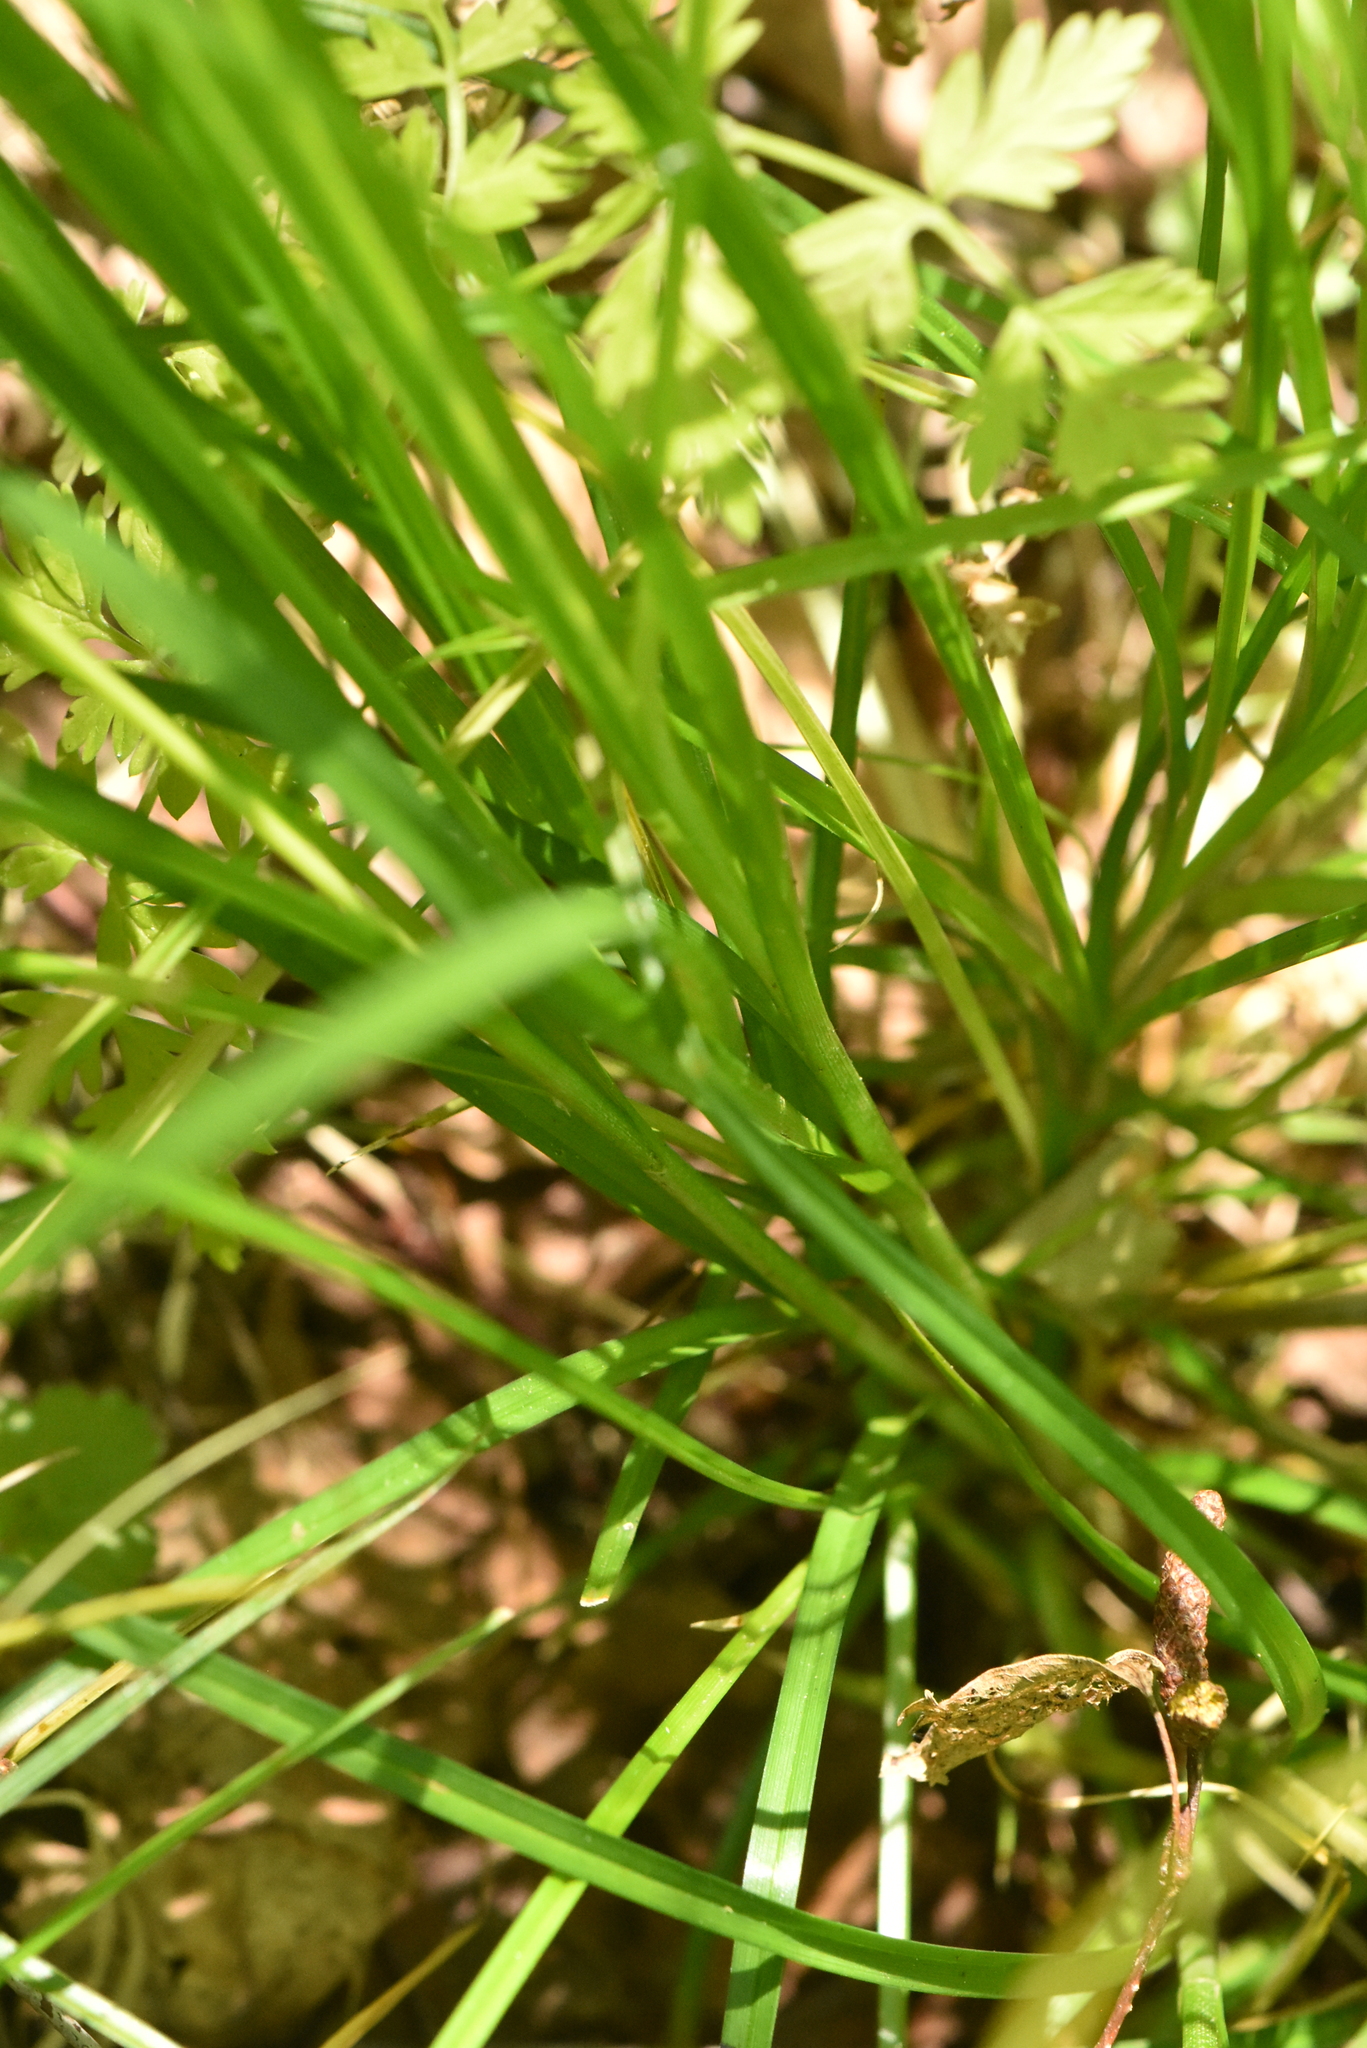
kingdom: Plantae
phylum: Tracheophyta
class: Liliopsida
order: Poales
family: Cyperaceae
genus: Carex
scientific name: Carex spicata
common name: Spiked sedge
